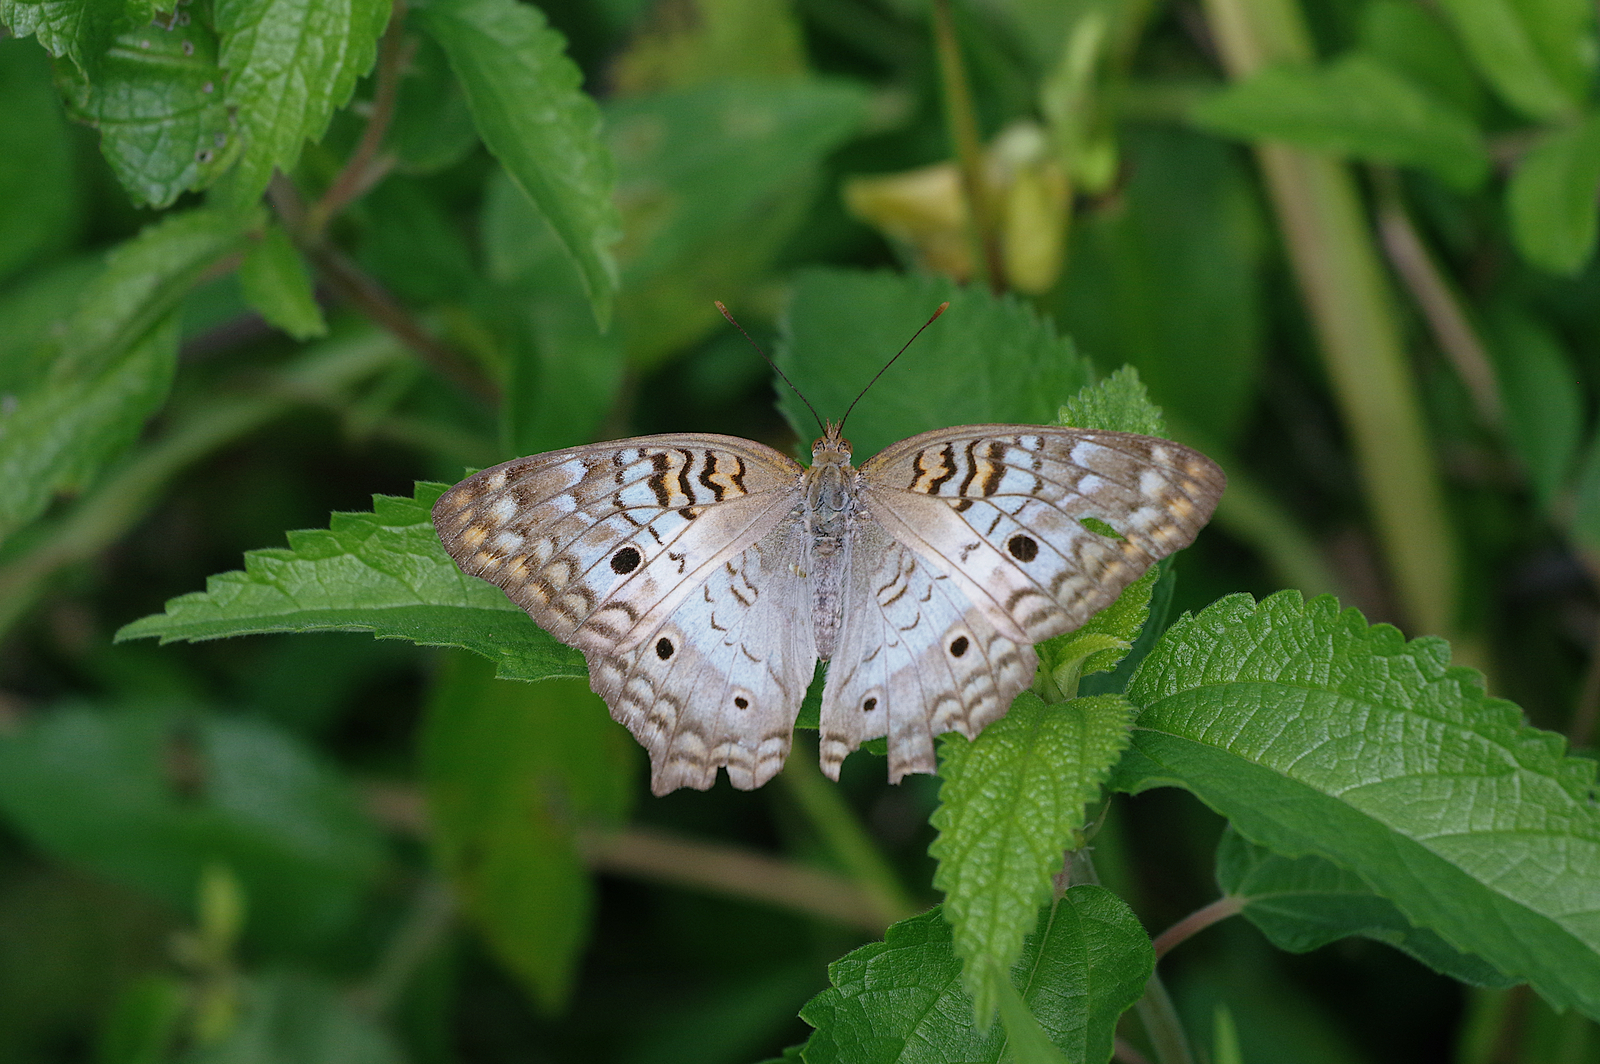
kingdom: Animalia
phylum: Arthropoda
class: Insecta
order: Lepidoptera
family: Nymphalidae
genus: Anartia
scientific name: Anartia jatrophae
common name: White peacock
